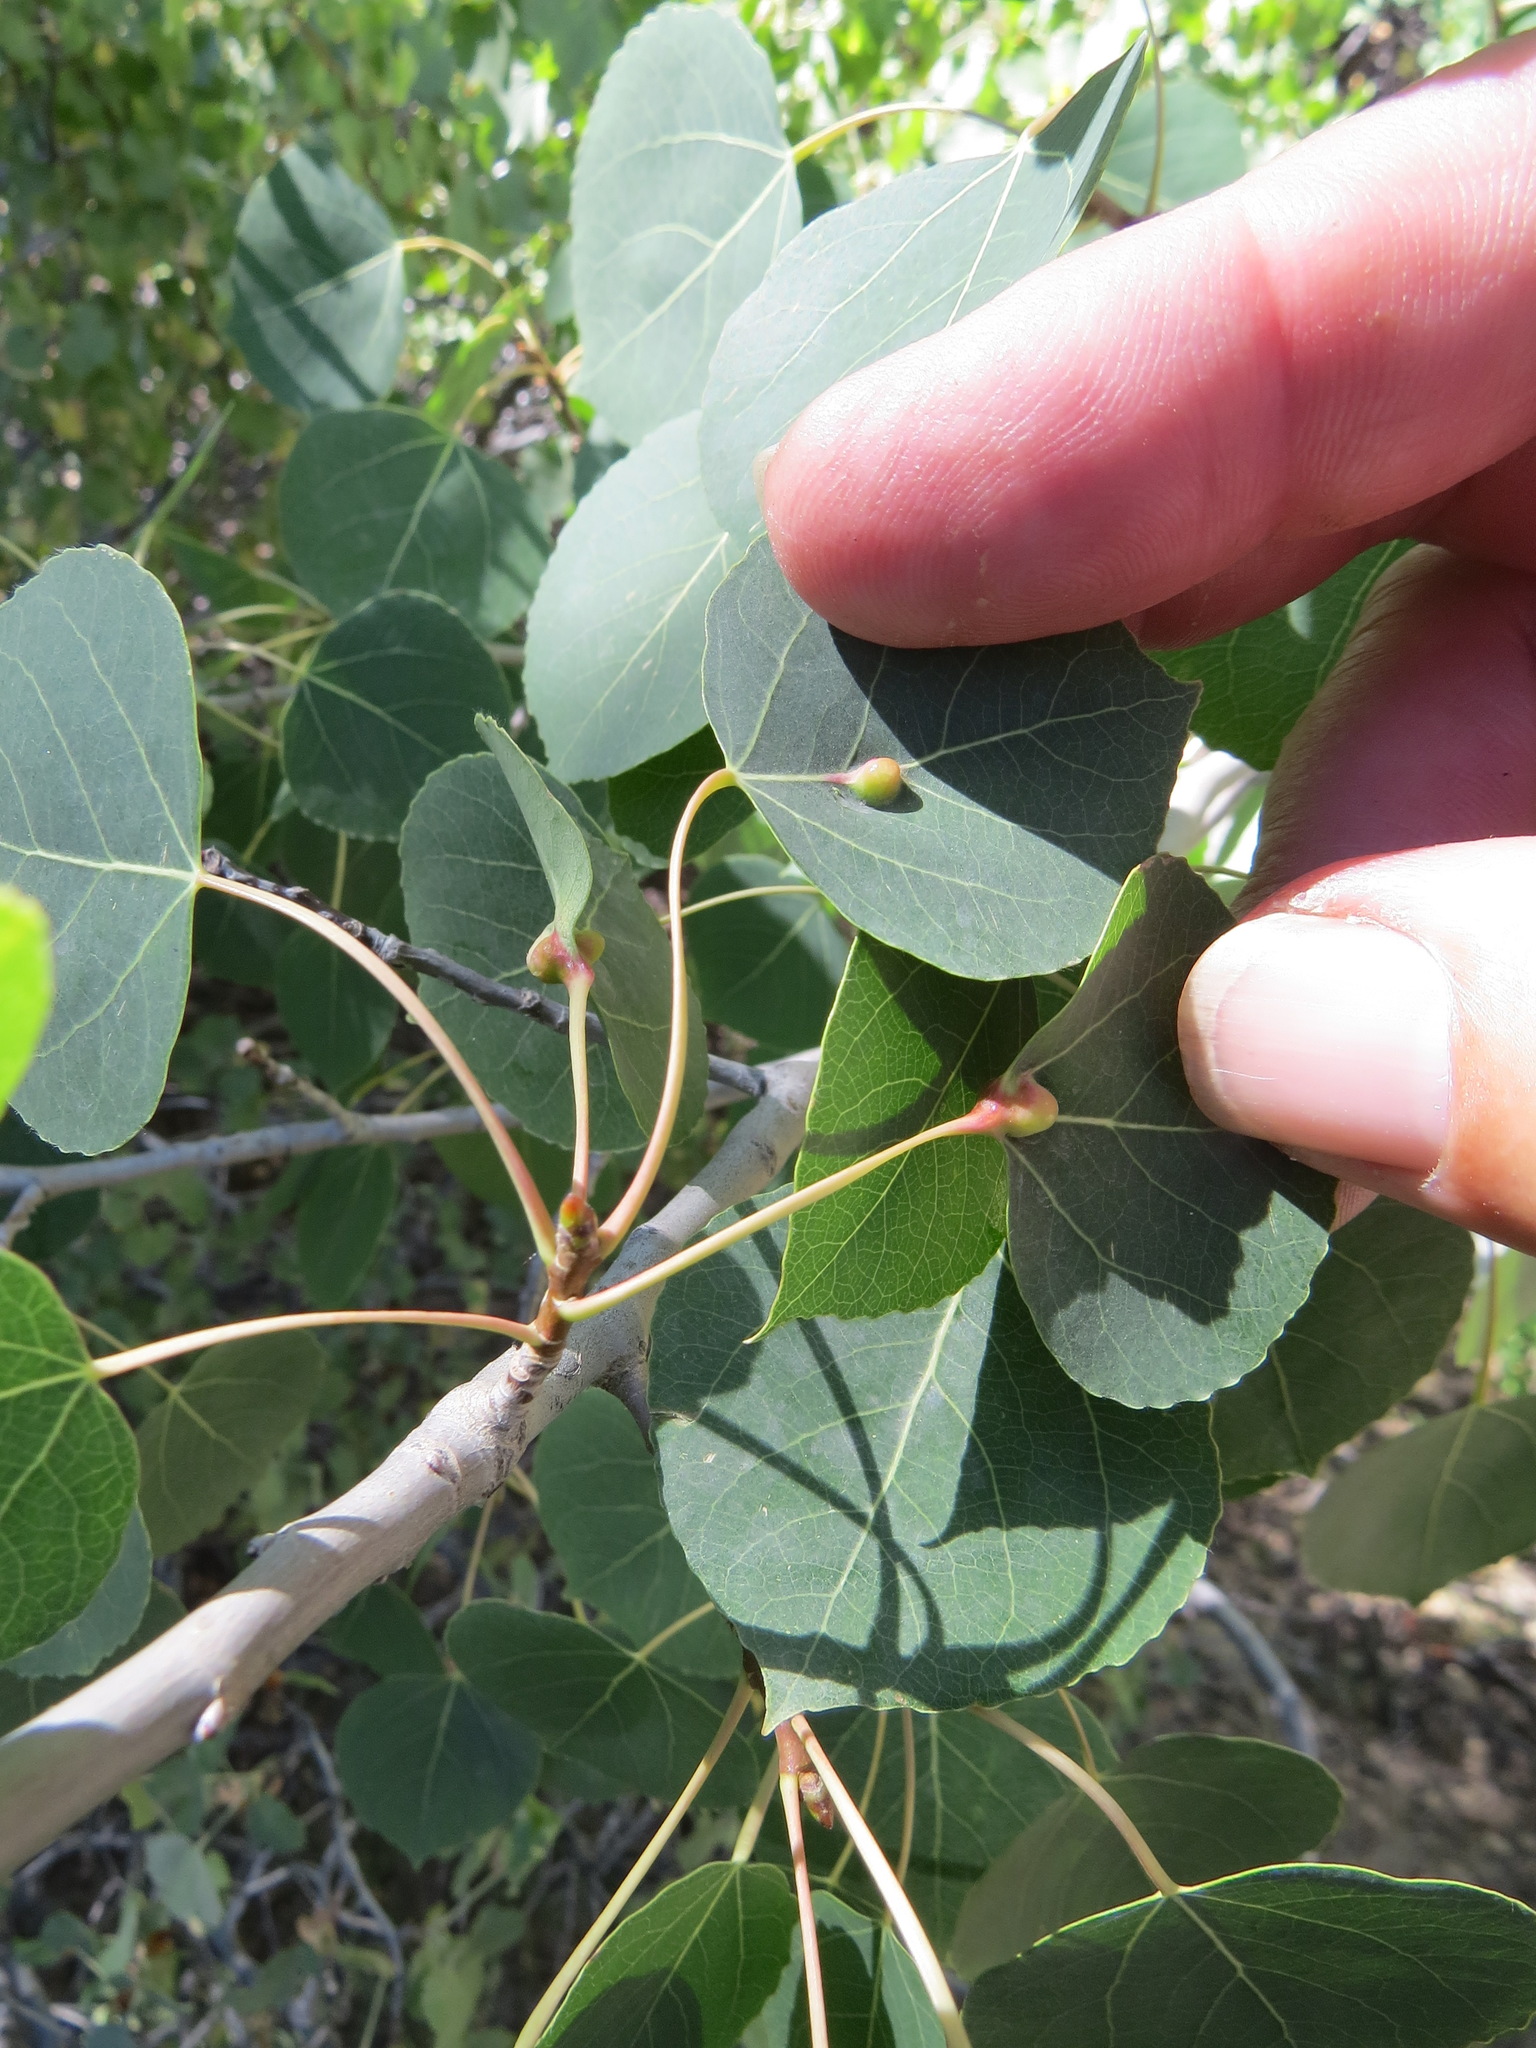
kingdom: Animalia
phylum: Arthropoda
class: Insecta
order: Diptera
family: Cecidomyiidae
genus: Harmandiola
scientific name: Harmandiola
